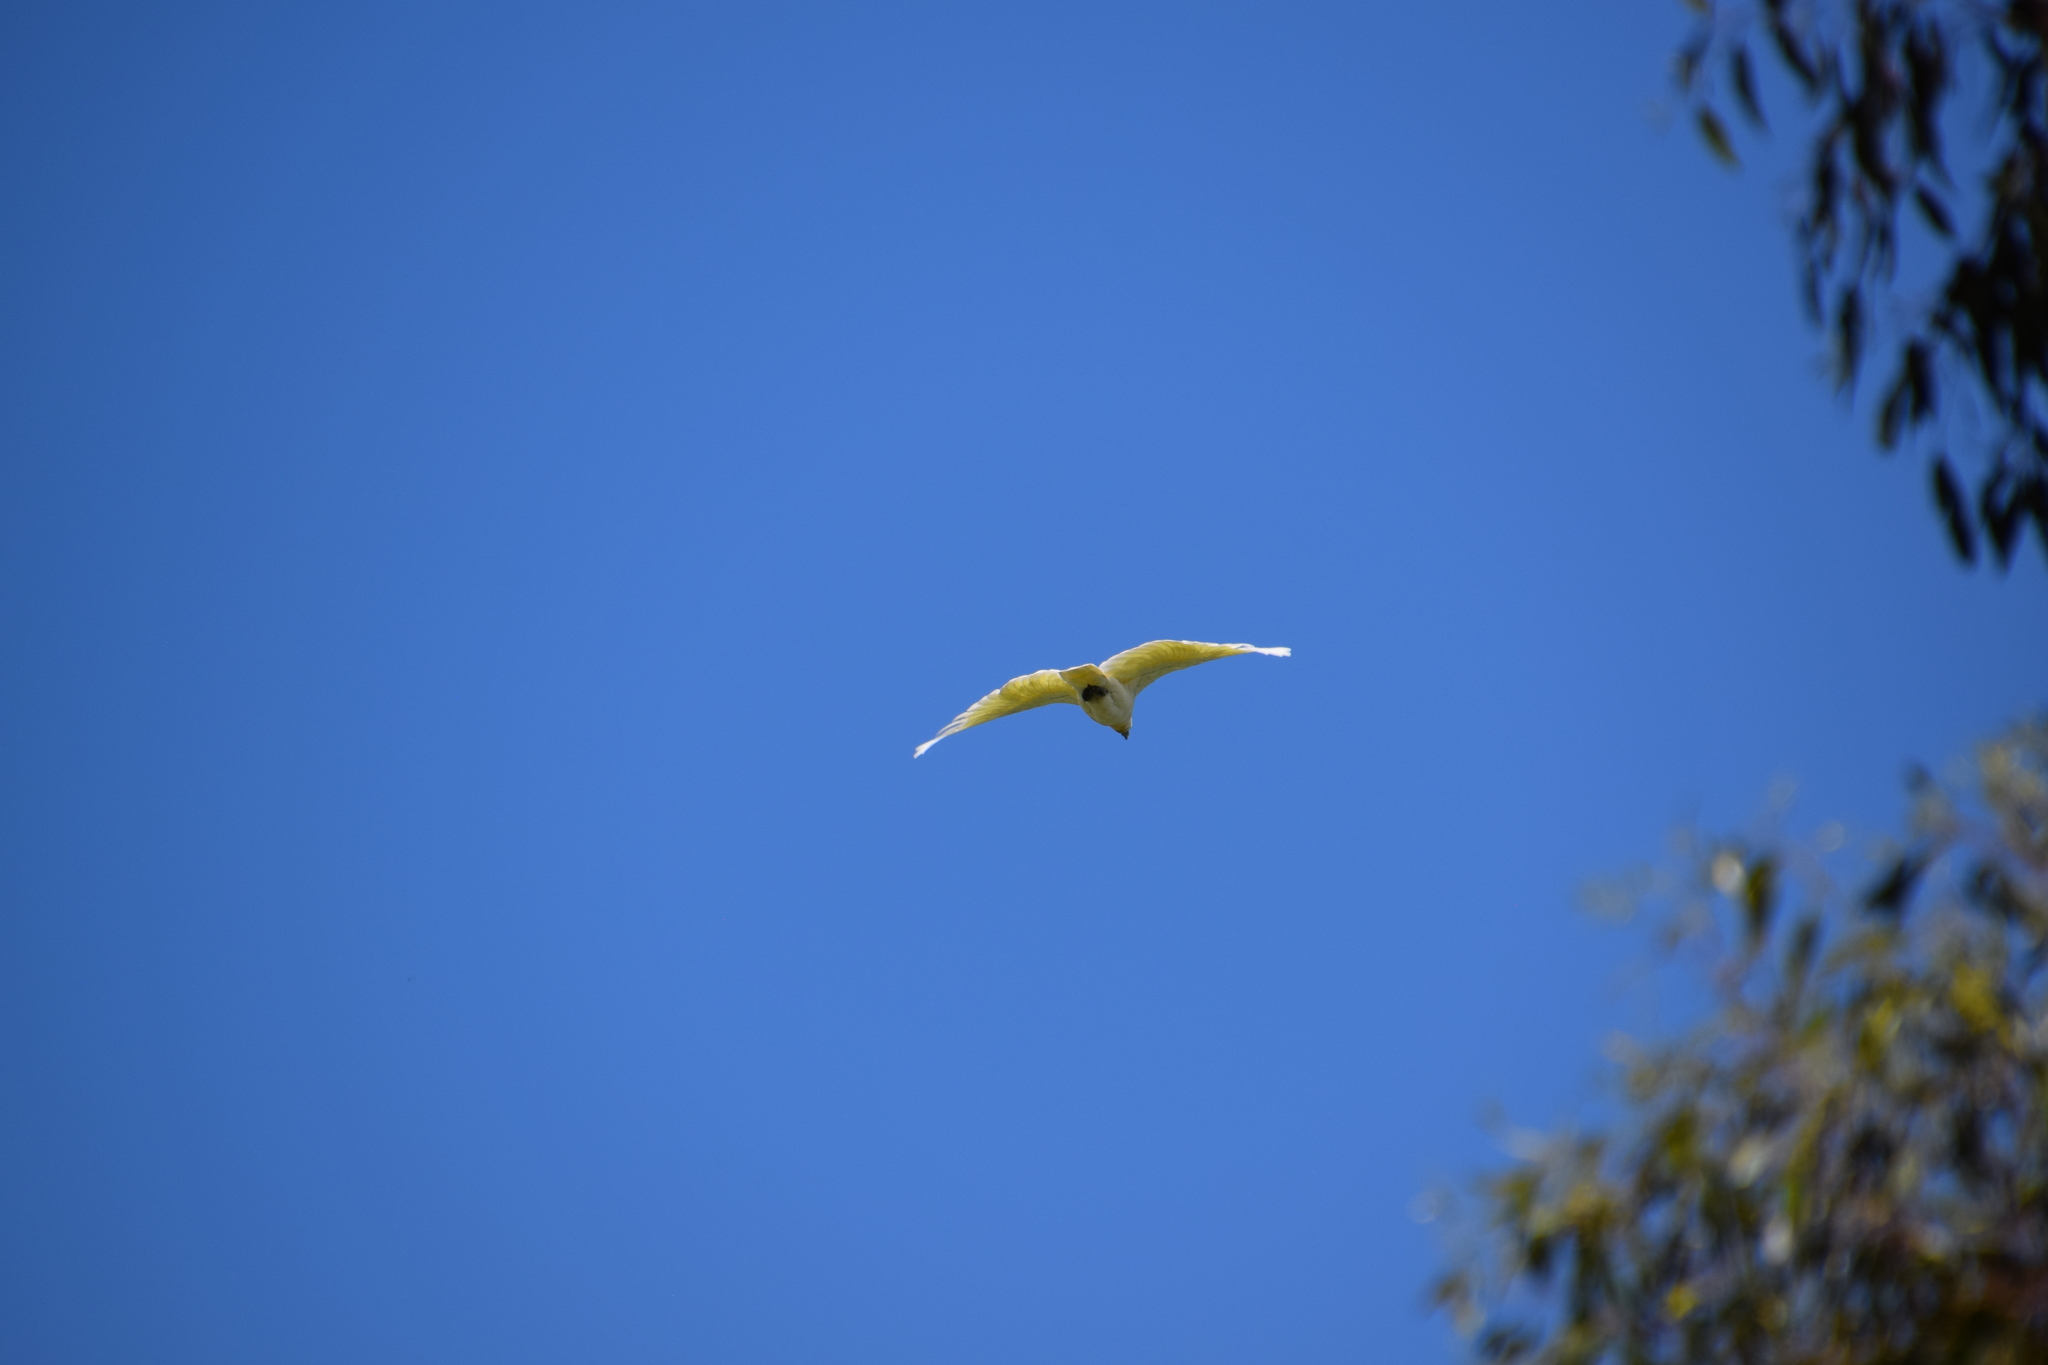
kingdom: Animalia
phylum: Chordata
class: Aves
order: Psittaciformes
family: Psittacidae
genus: Cacatua
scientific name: Cacatua galerita
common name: Sulphur-crested cockatoo
